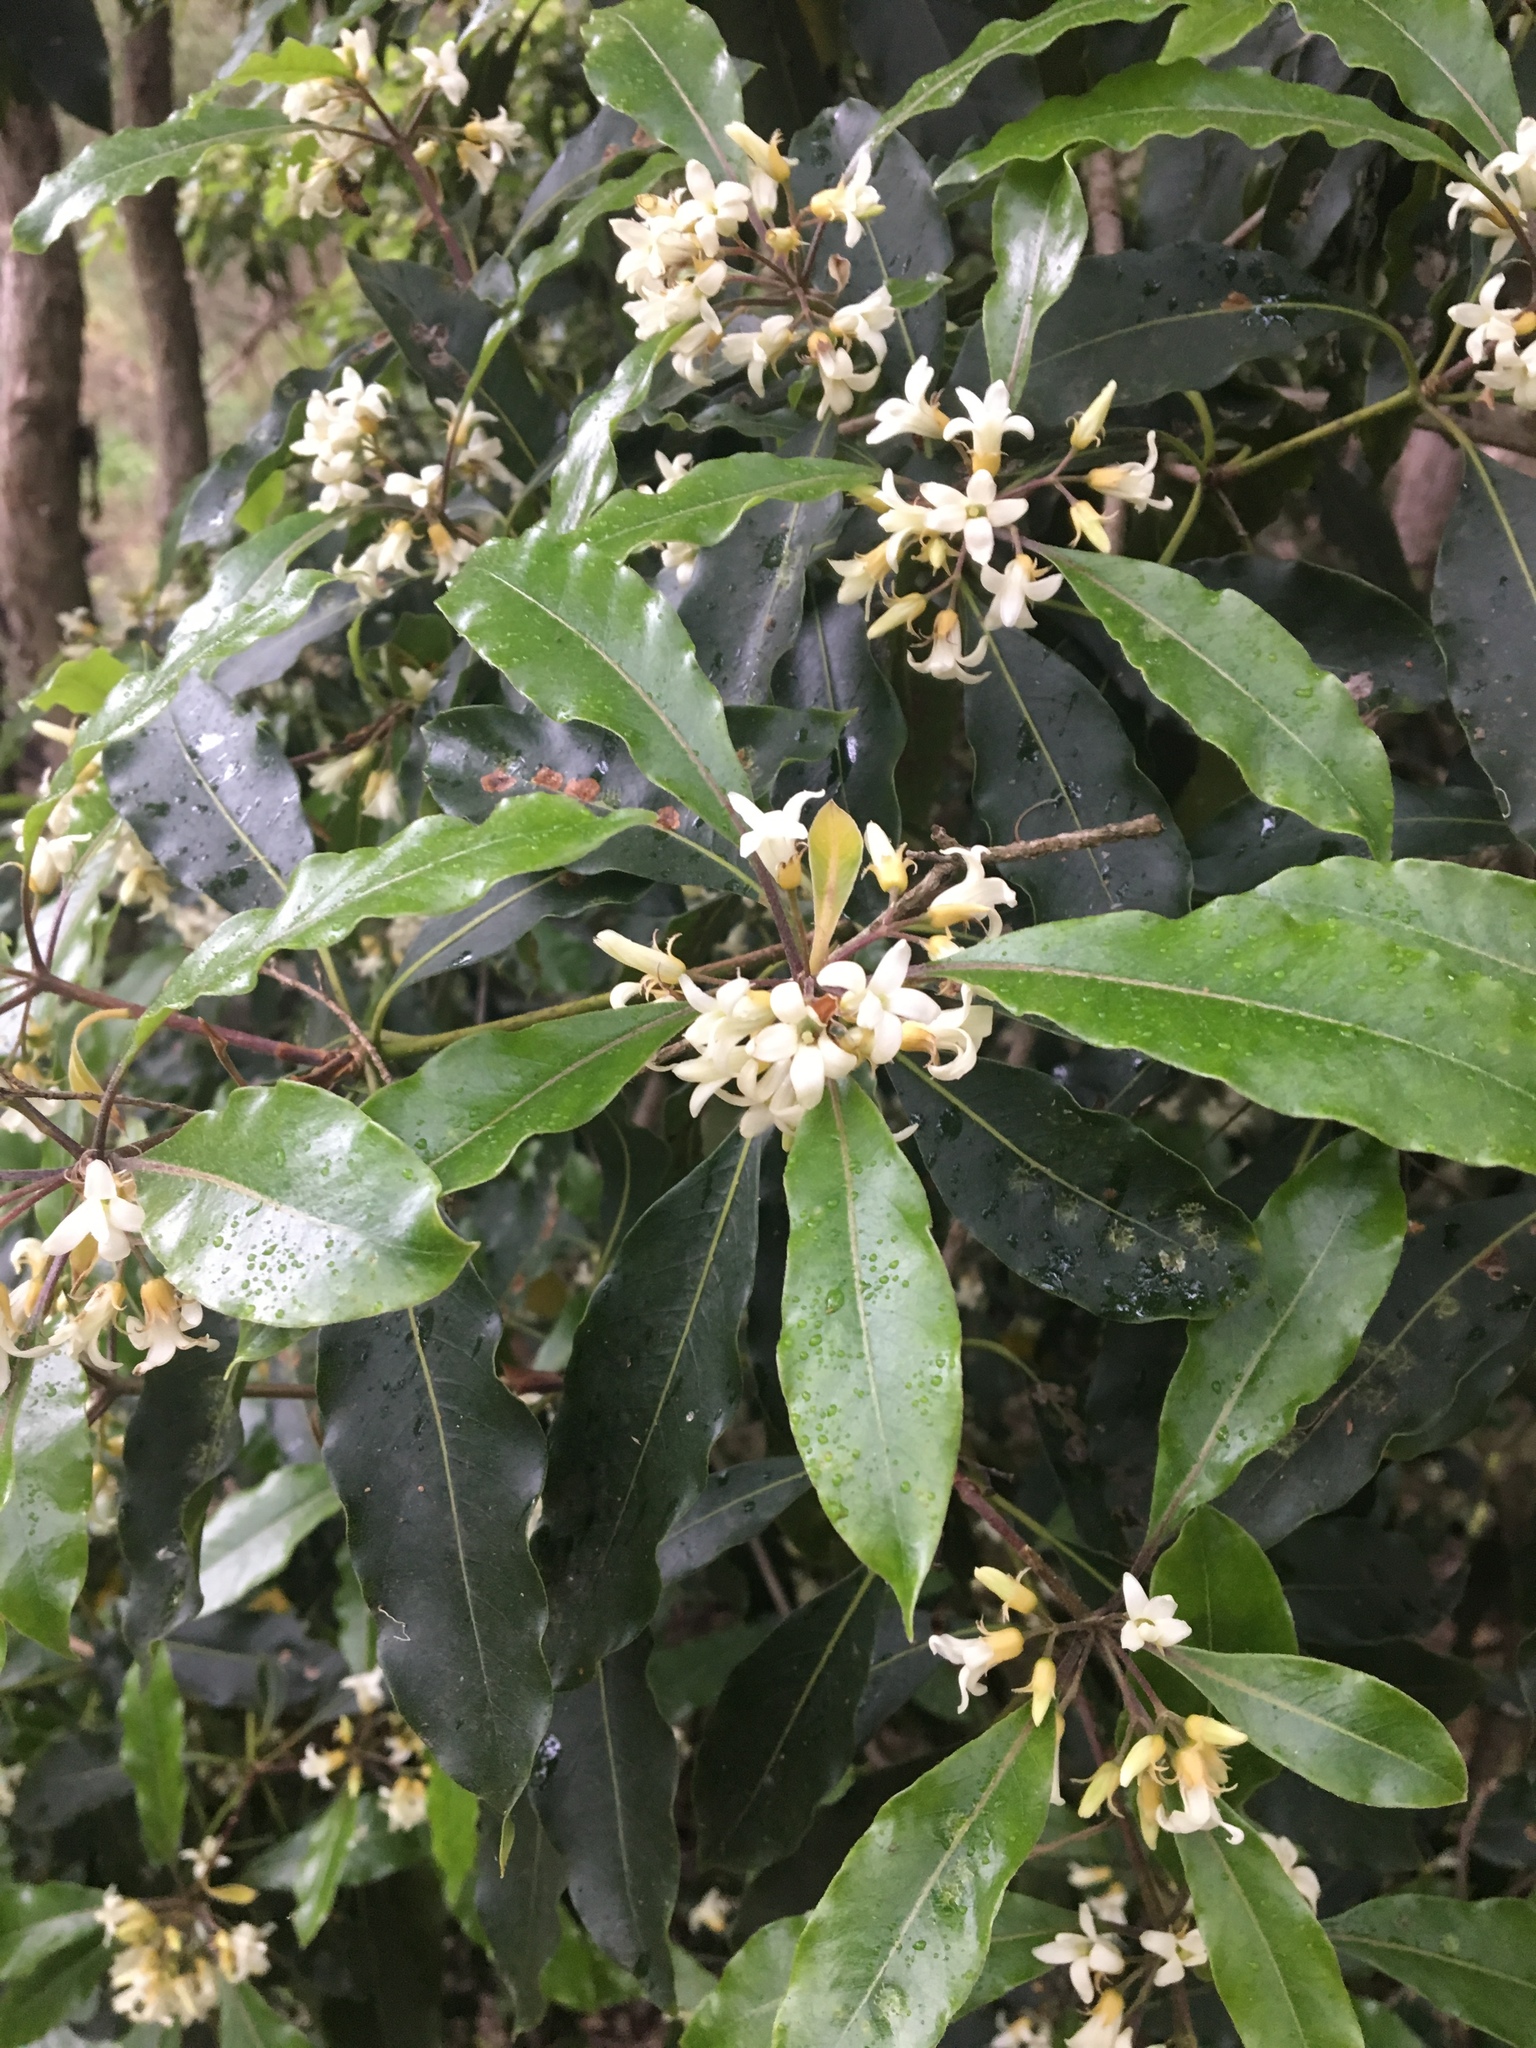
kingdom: Plantae
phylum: Tracheophyta
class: Magnoliopsida
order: Apiales
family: Pittosporaceae
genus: Pittosporum
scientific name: Pittosporum undulatum
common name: Australian cheesewood
